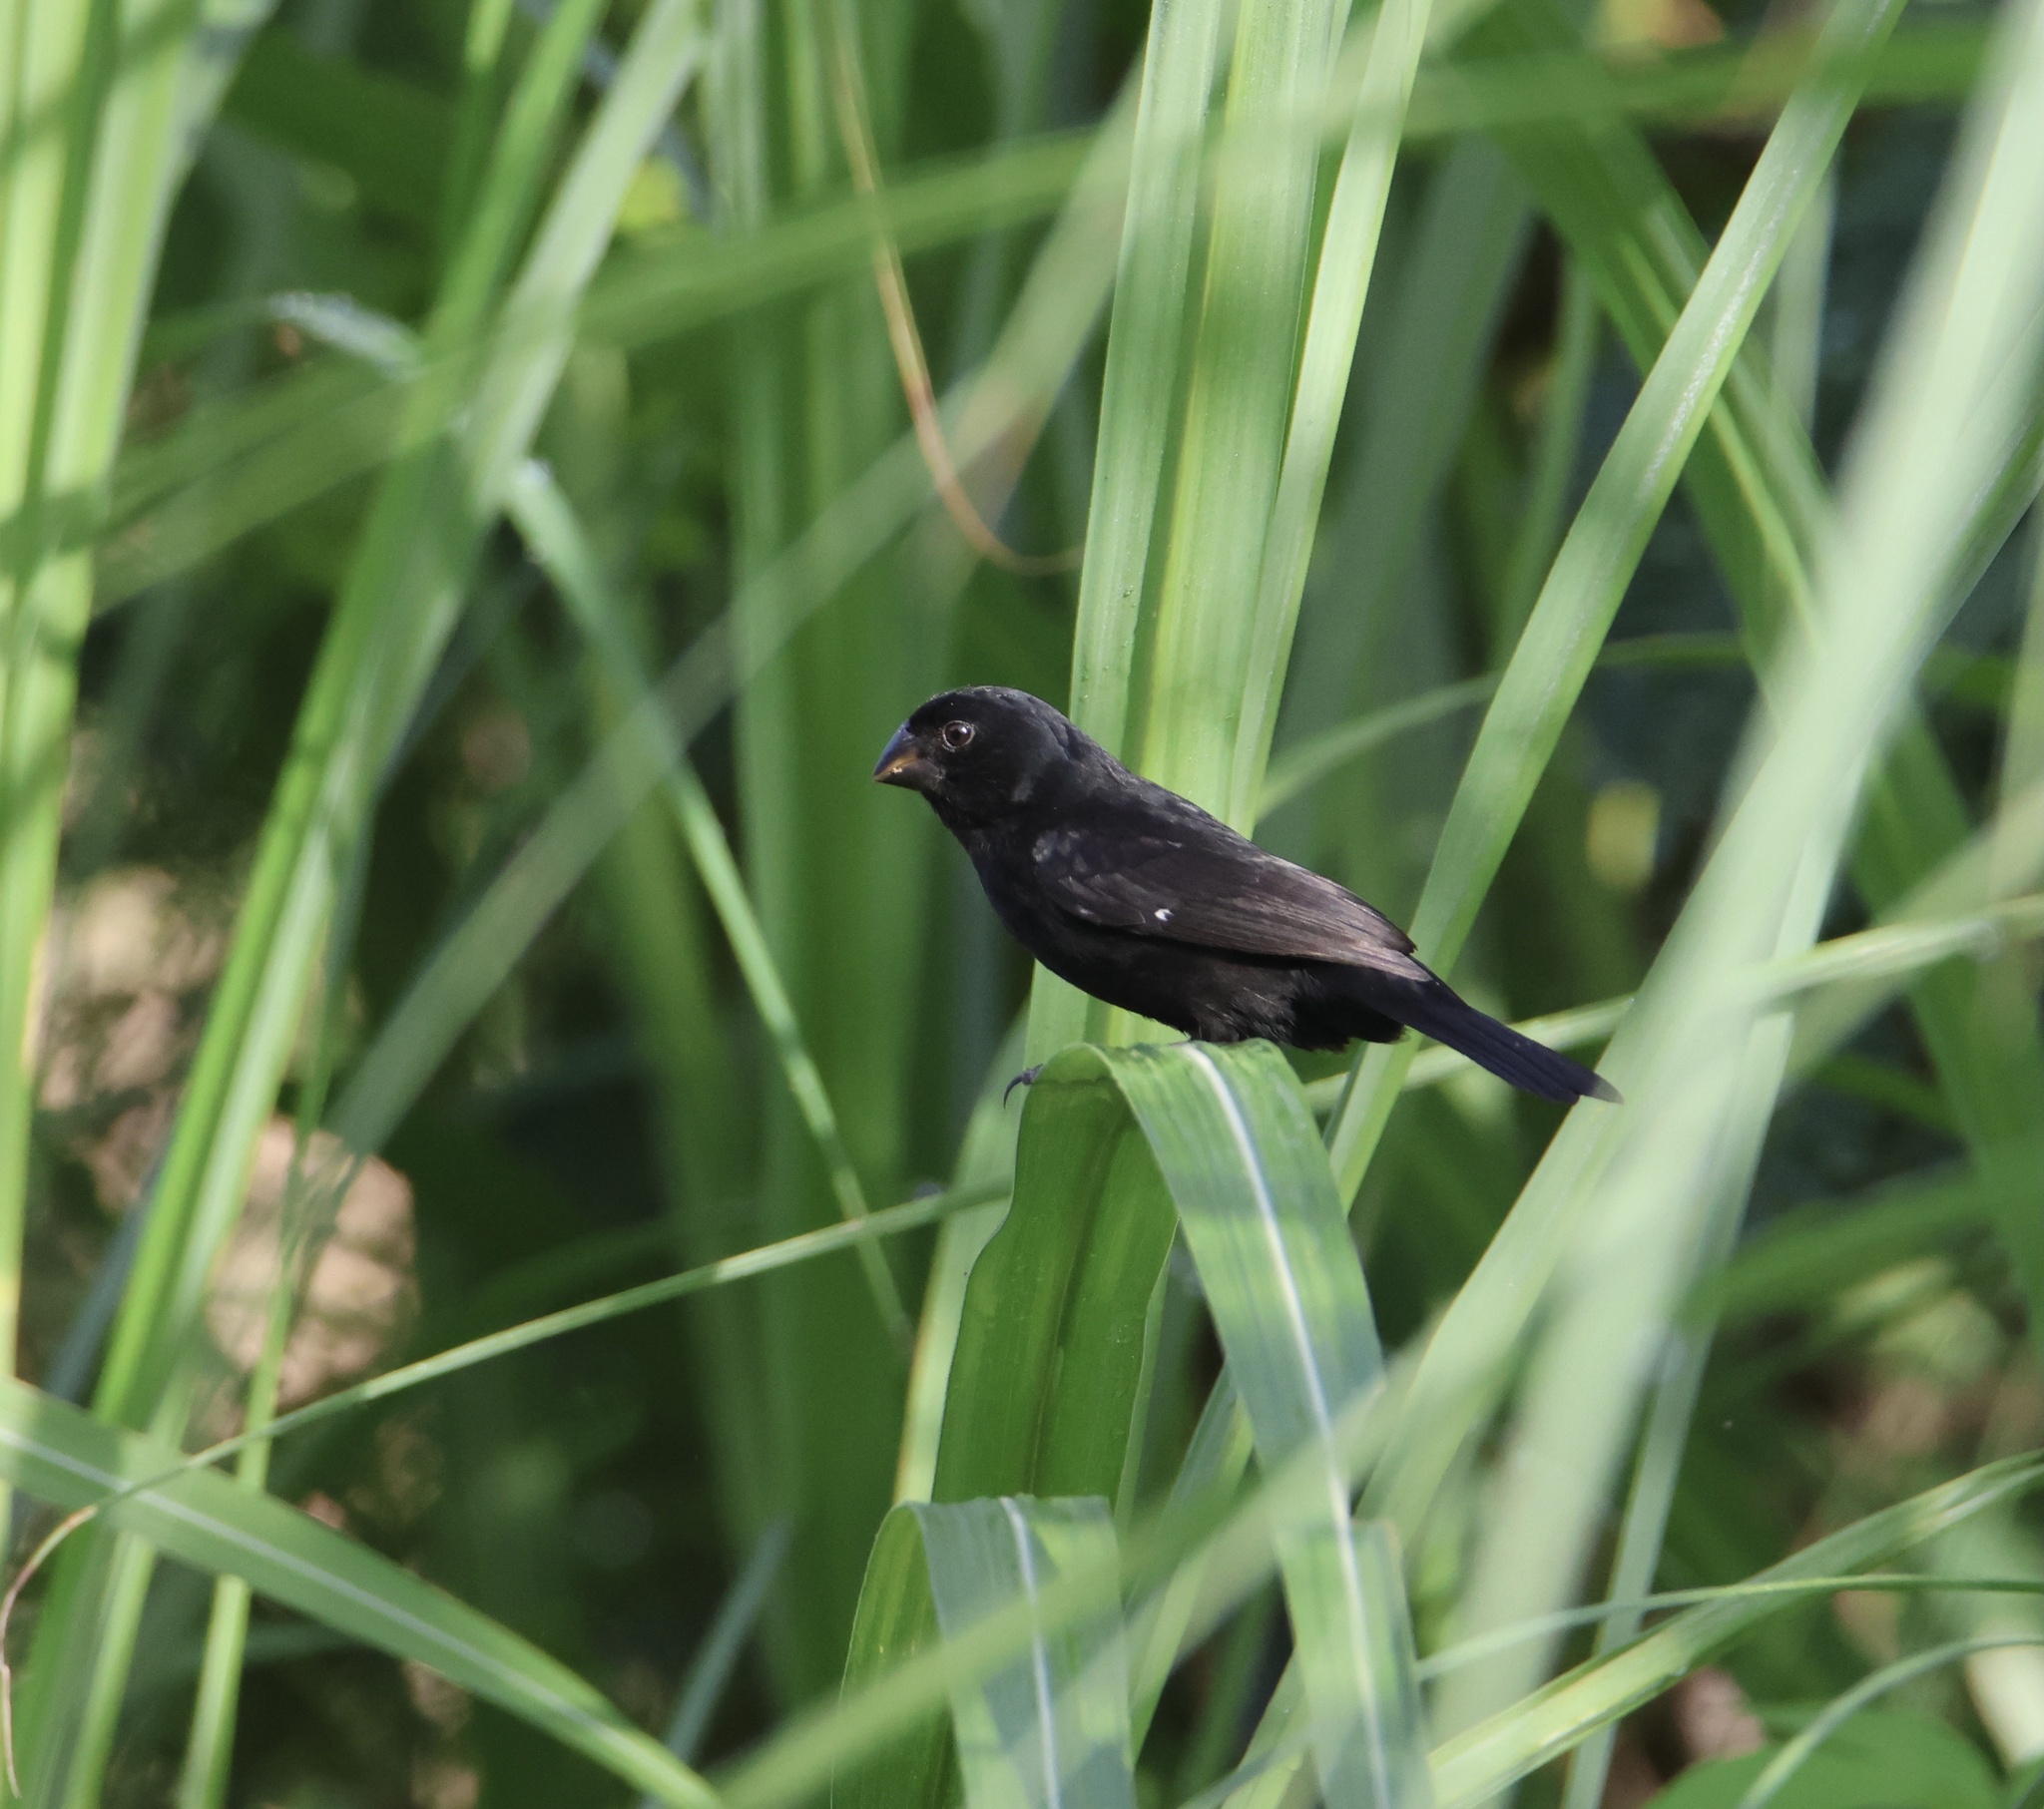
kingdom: Animalia
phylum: Chordata
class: Aves
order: Passeriformes
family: Thraupidae
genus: Sporophila
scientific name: Sporophila funerea
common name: Thick-billed seed-finch
